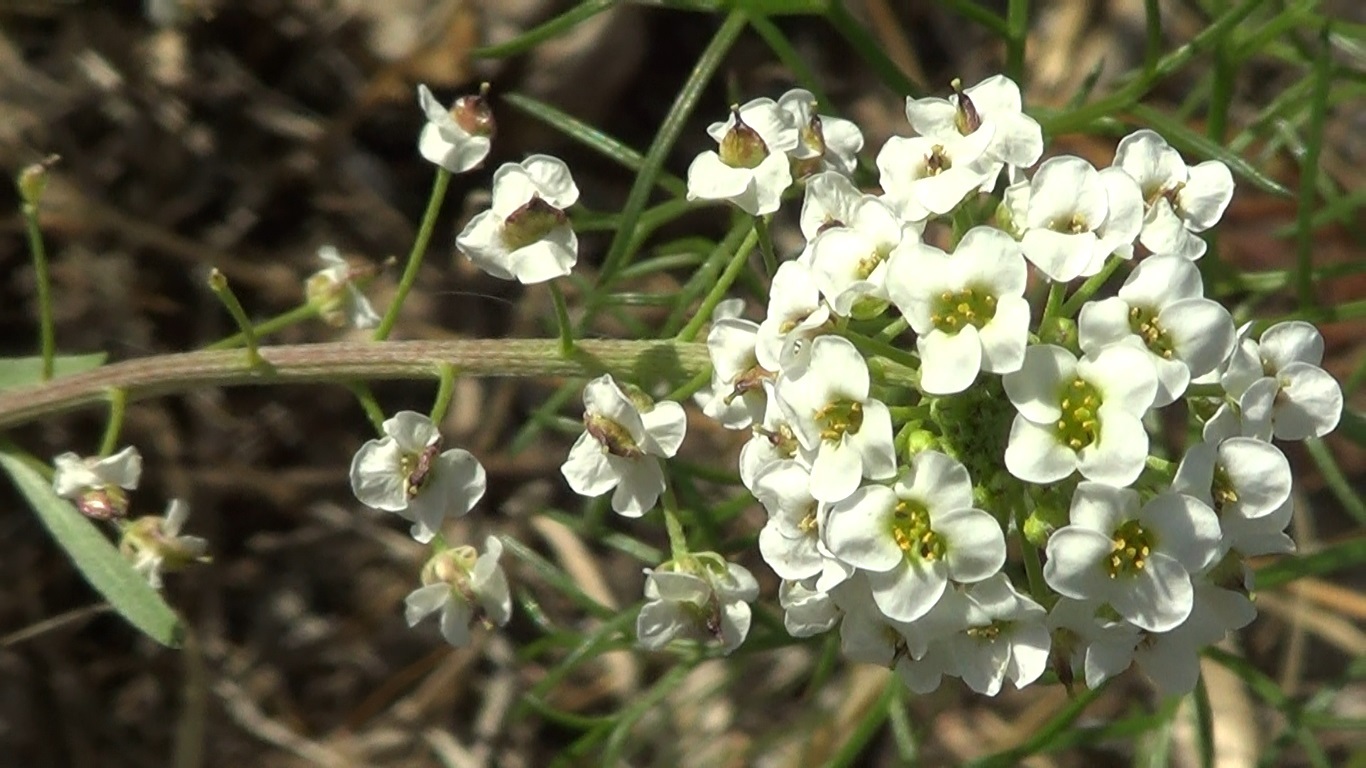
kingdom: Plantae
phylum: Tracheophyta
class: Magnoliopsida
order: Brassicales
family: Brassicaceae
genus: Lobularia
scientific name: Lobularia maritima
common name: Sweet alison
